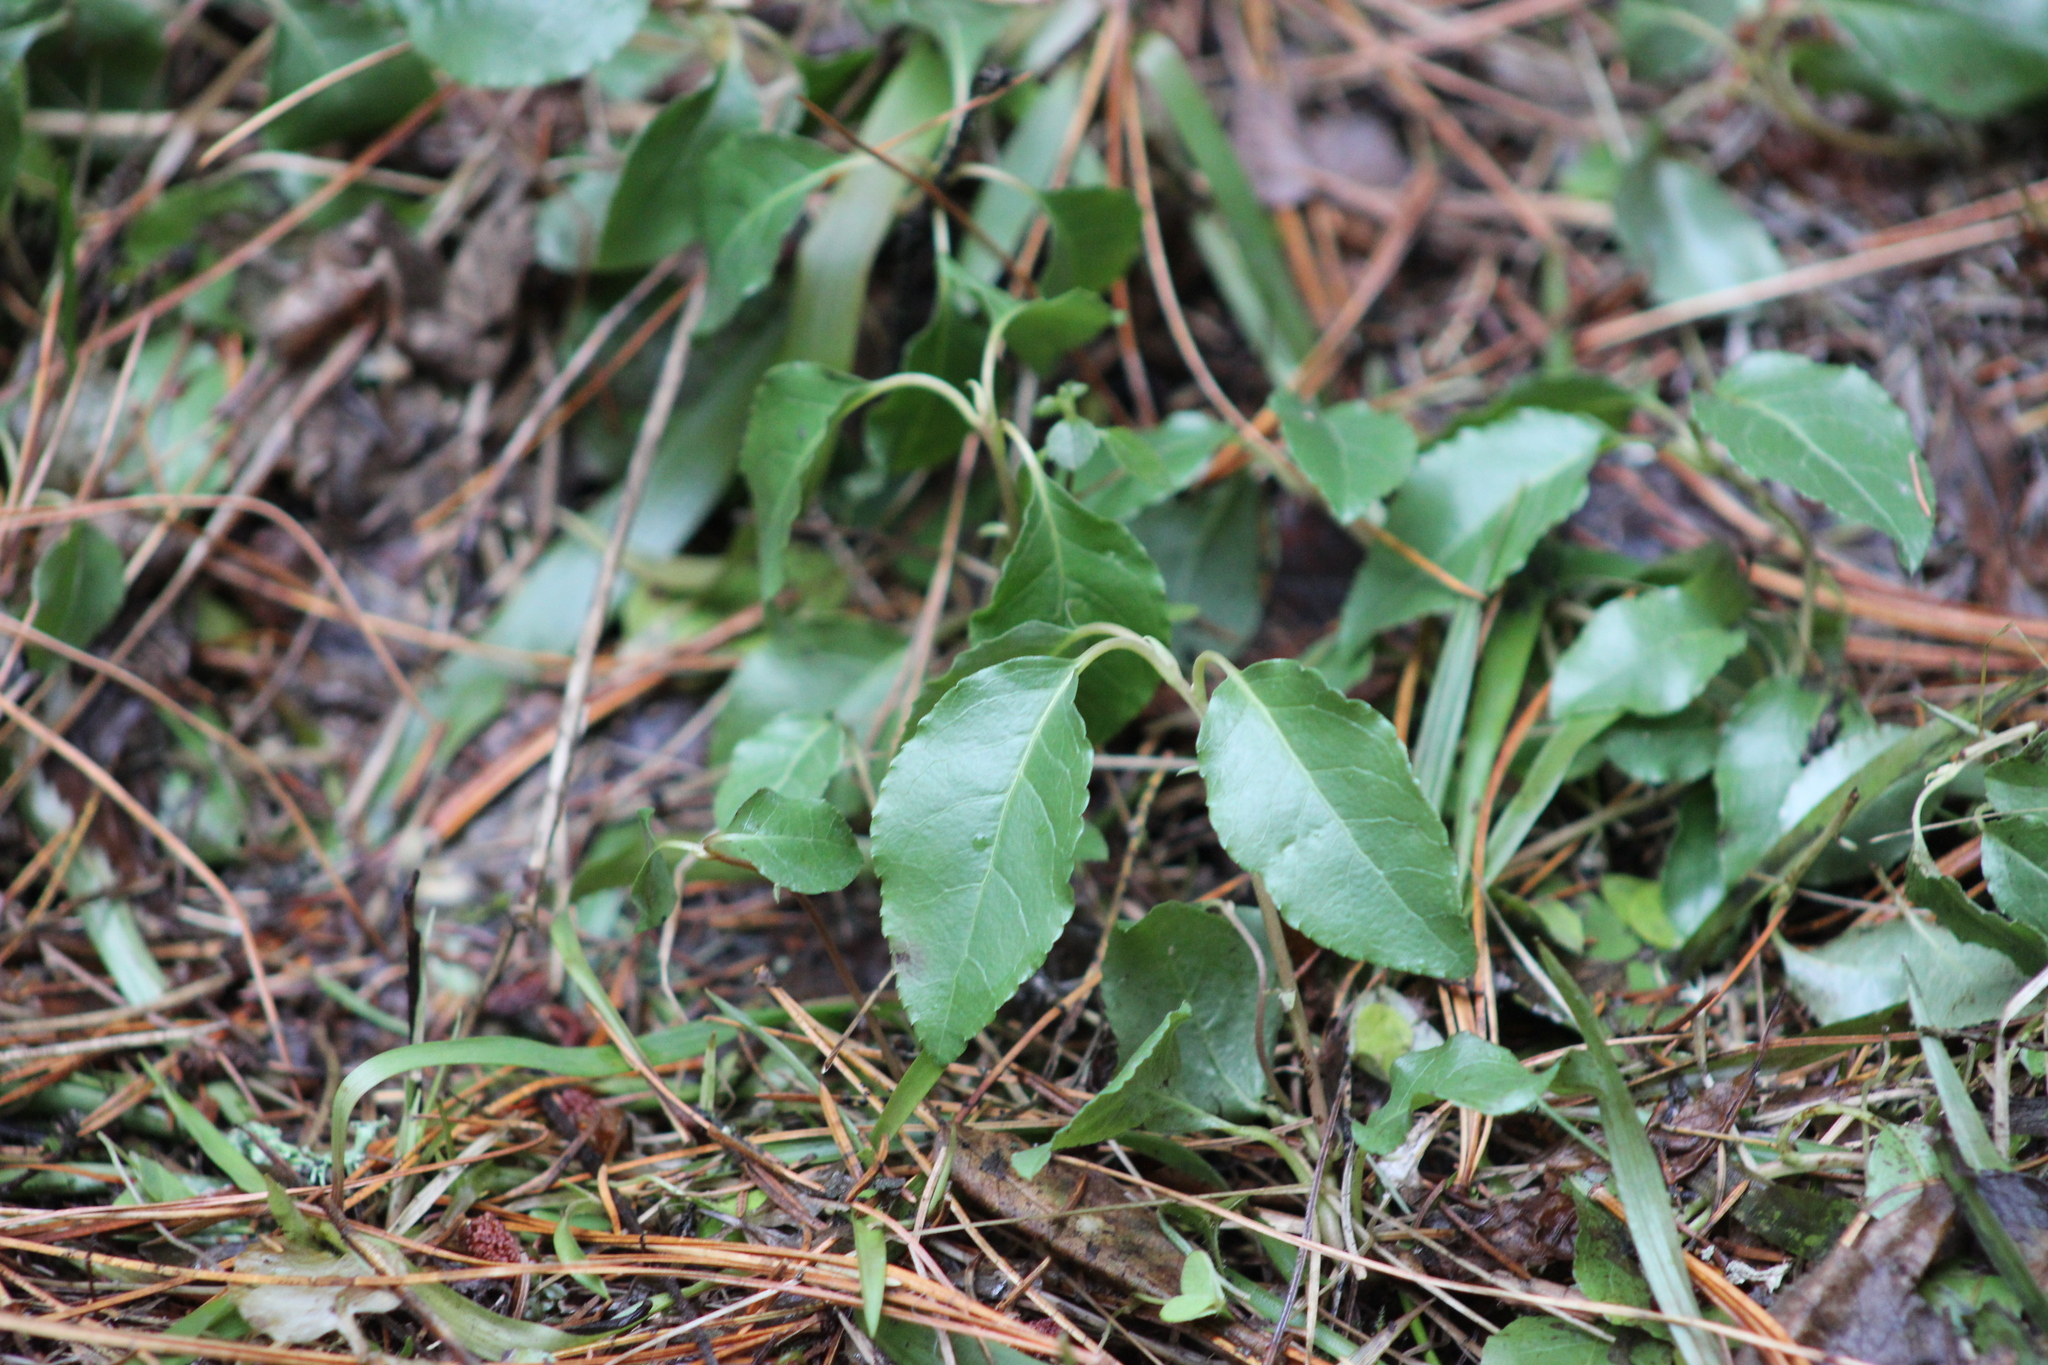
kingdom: Plantae
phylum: Tracheophyta
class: Magnoliopsida
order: Ericales
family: Ericaceae
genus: Orthilia
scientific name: Orthilia secunda
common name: One-sided orthilia
